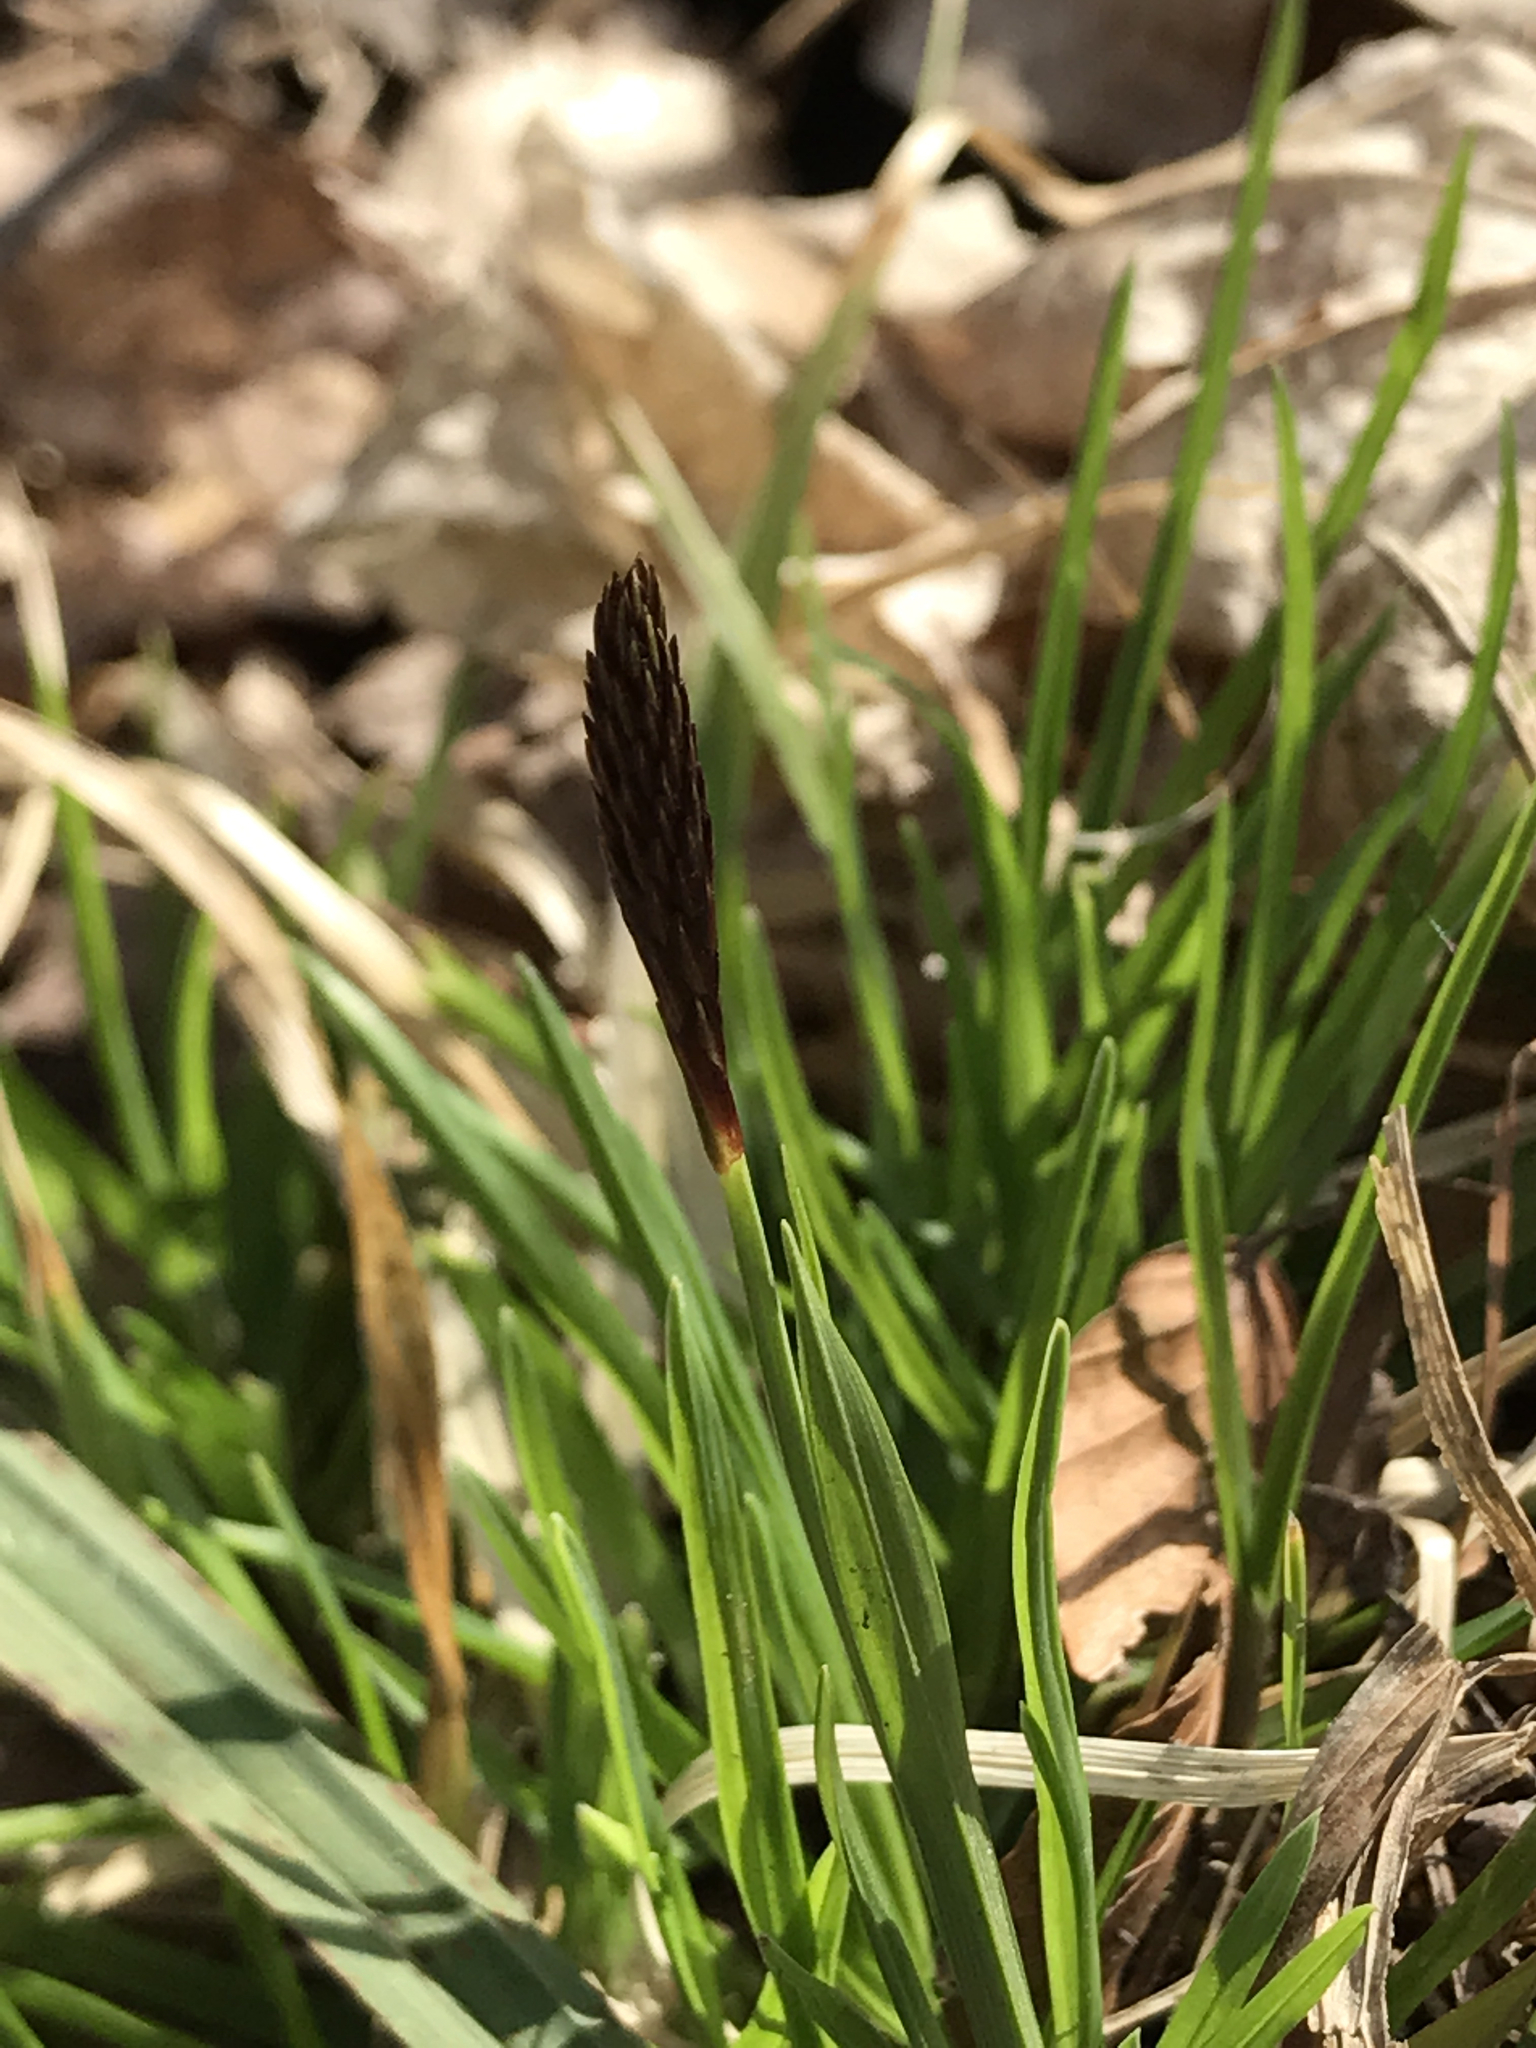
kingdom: Plantae
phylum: Tracheophyta
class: Liliopsida
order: Poales
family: Cyperaceae
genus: Carex
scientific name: Carex pensylvanica
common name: Common oak sedge
